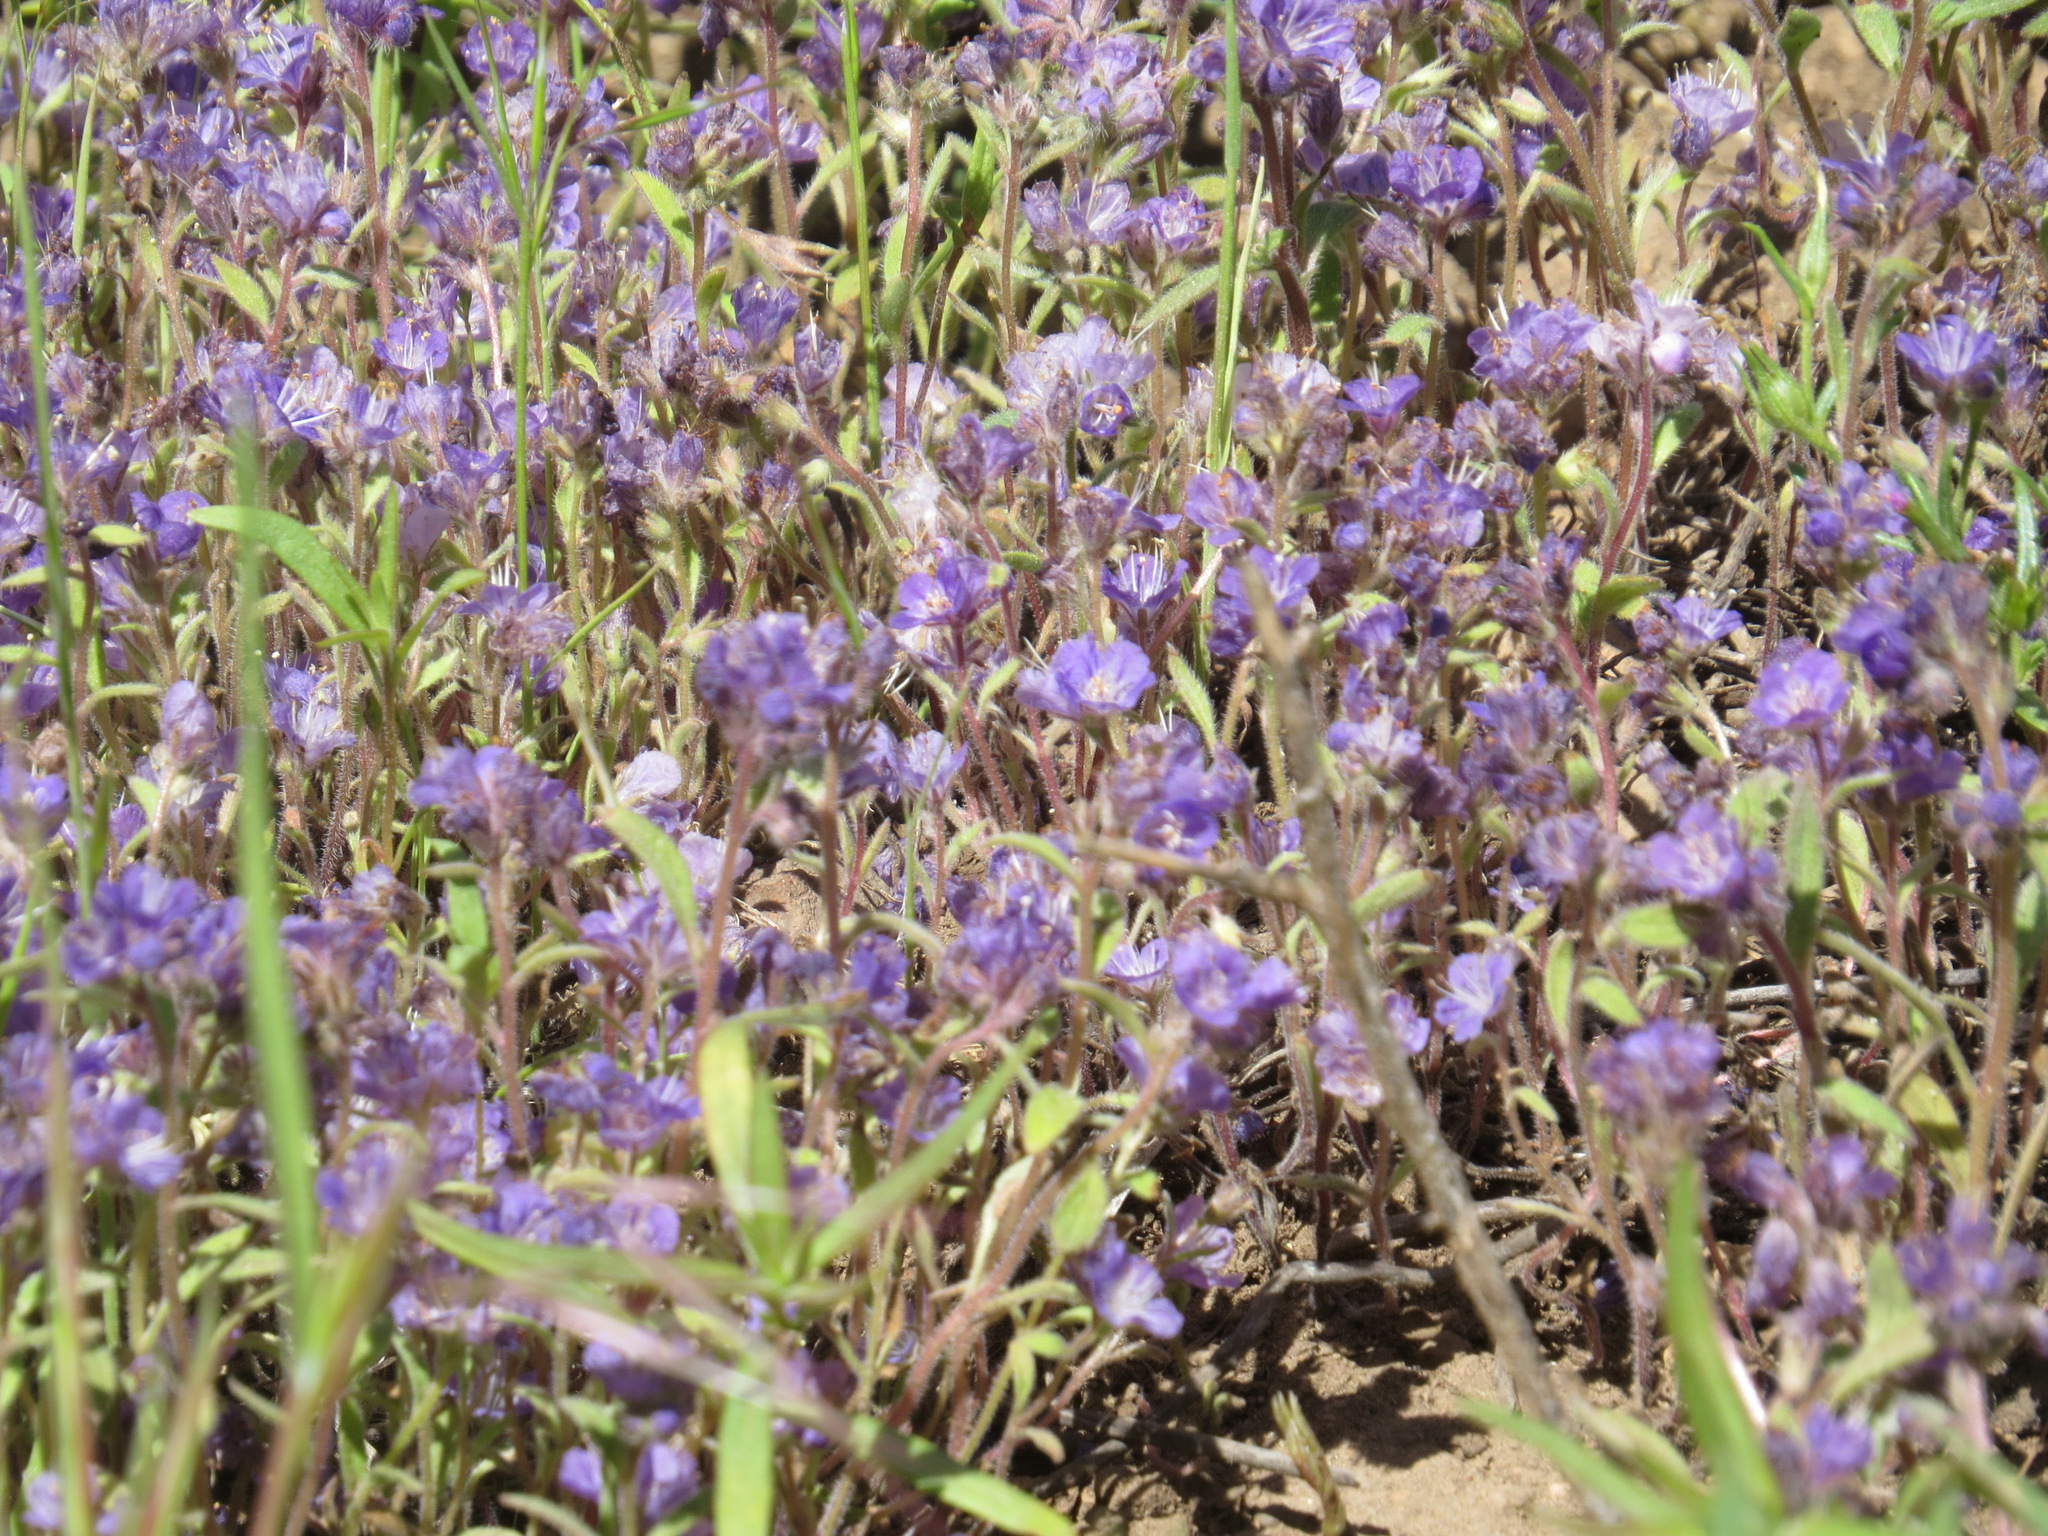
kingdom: Plantae
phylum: Tracheophyta
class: Magnoliopsida
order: Boraginales
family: Hydrophyllaceae
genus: Phacelia
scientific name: Phacelia humilis
